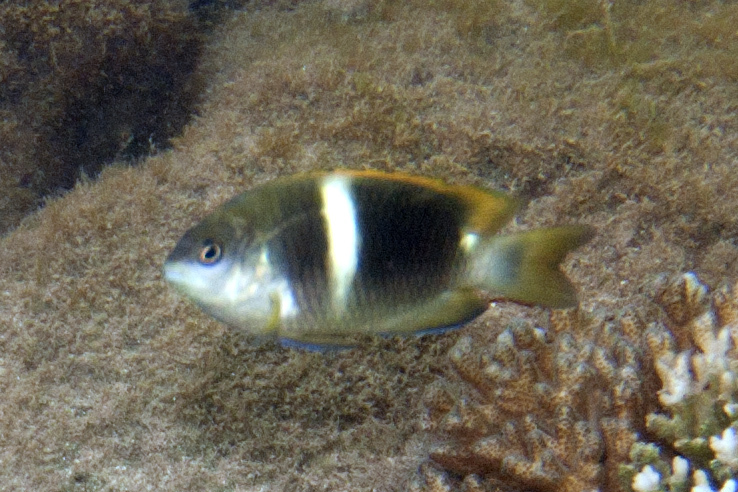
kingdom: Animalia
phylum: Chordata
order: Perciformes
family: Pomacentridae
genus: Chrysiptera
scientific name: Chrysiptera biocellata
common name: Twinspot damselfish
